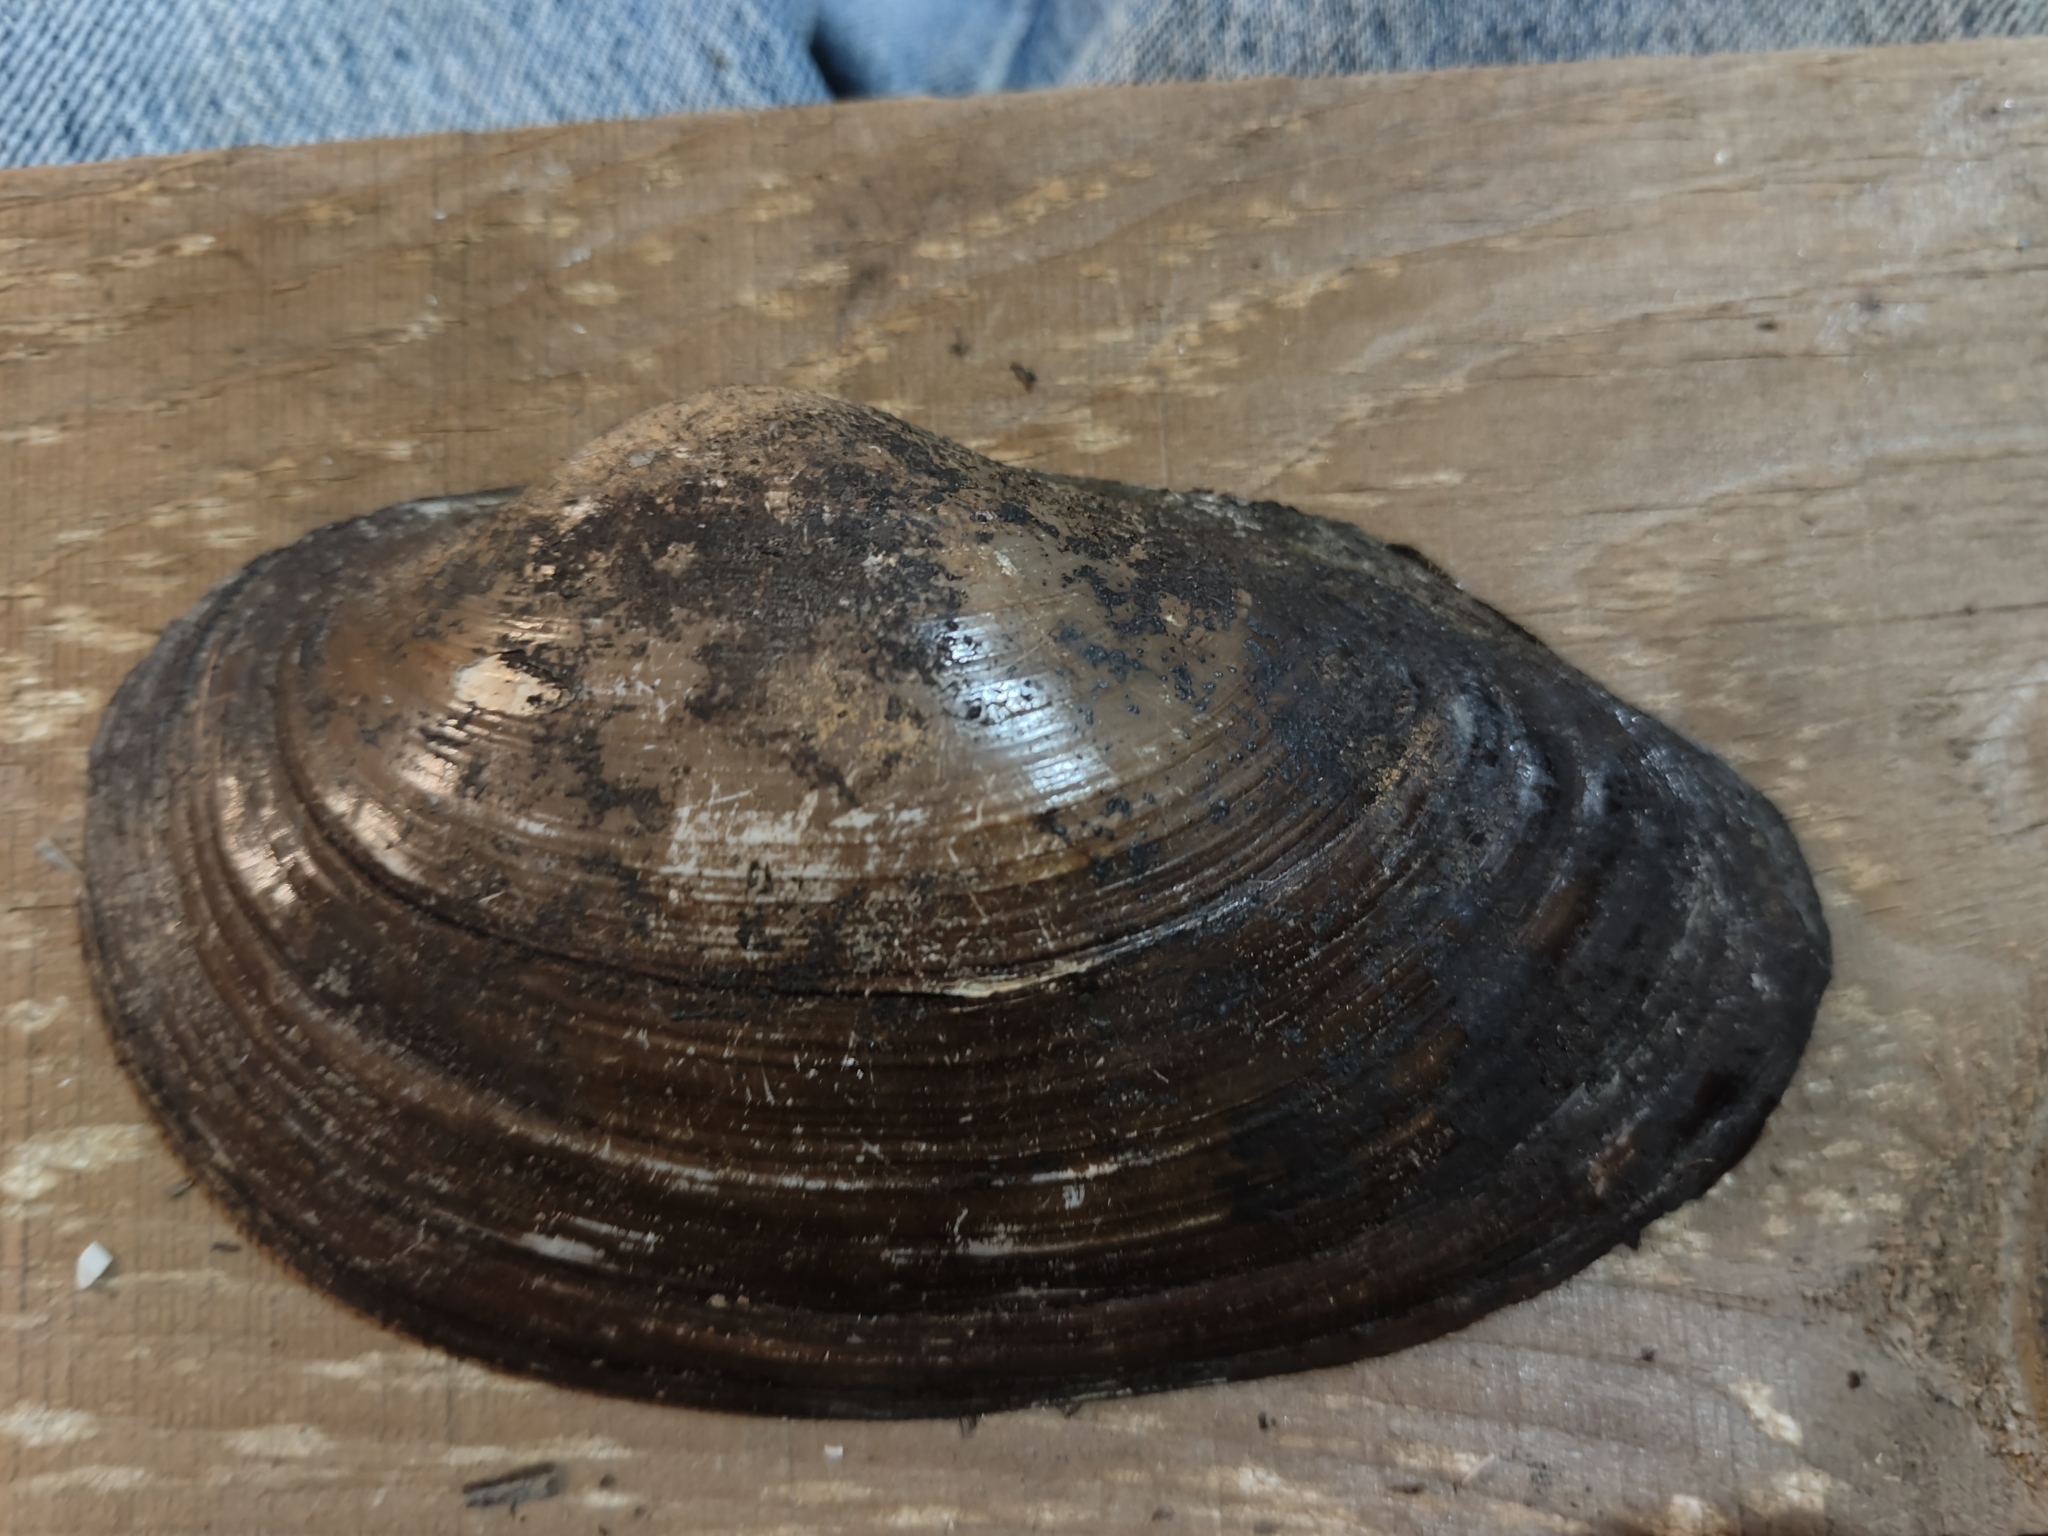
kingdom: Animalia
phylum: Mollusca
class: Bivalvia
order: Unionida
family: Unionidae
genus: Pyganodon
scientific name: Pyganodon grandis
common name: Giant floater
